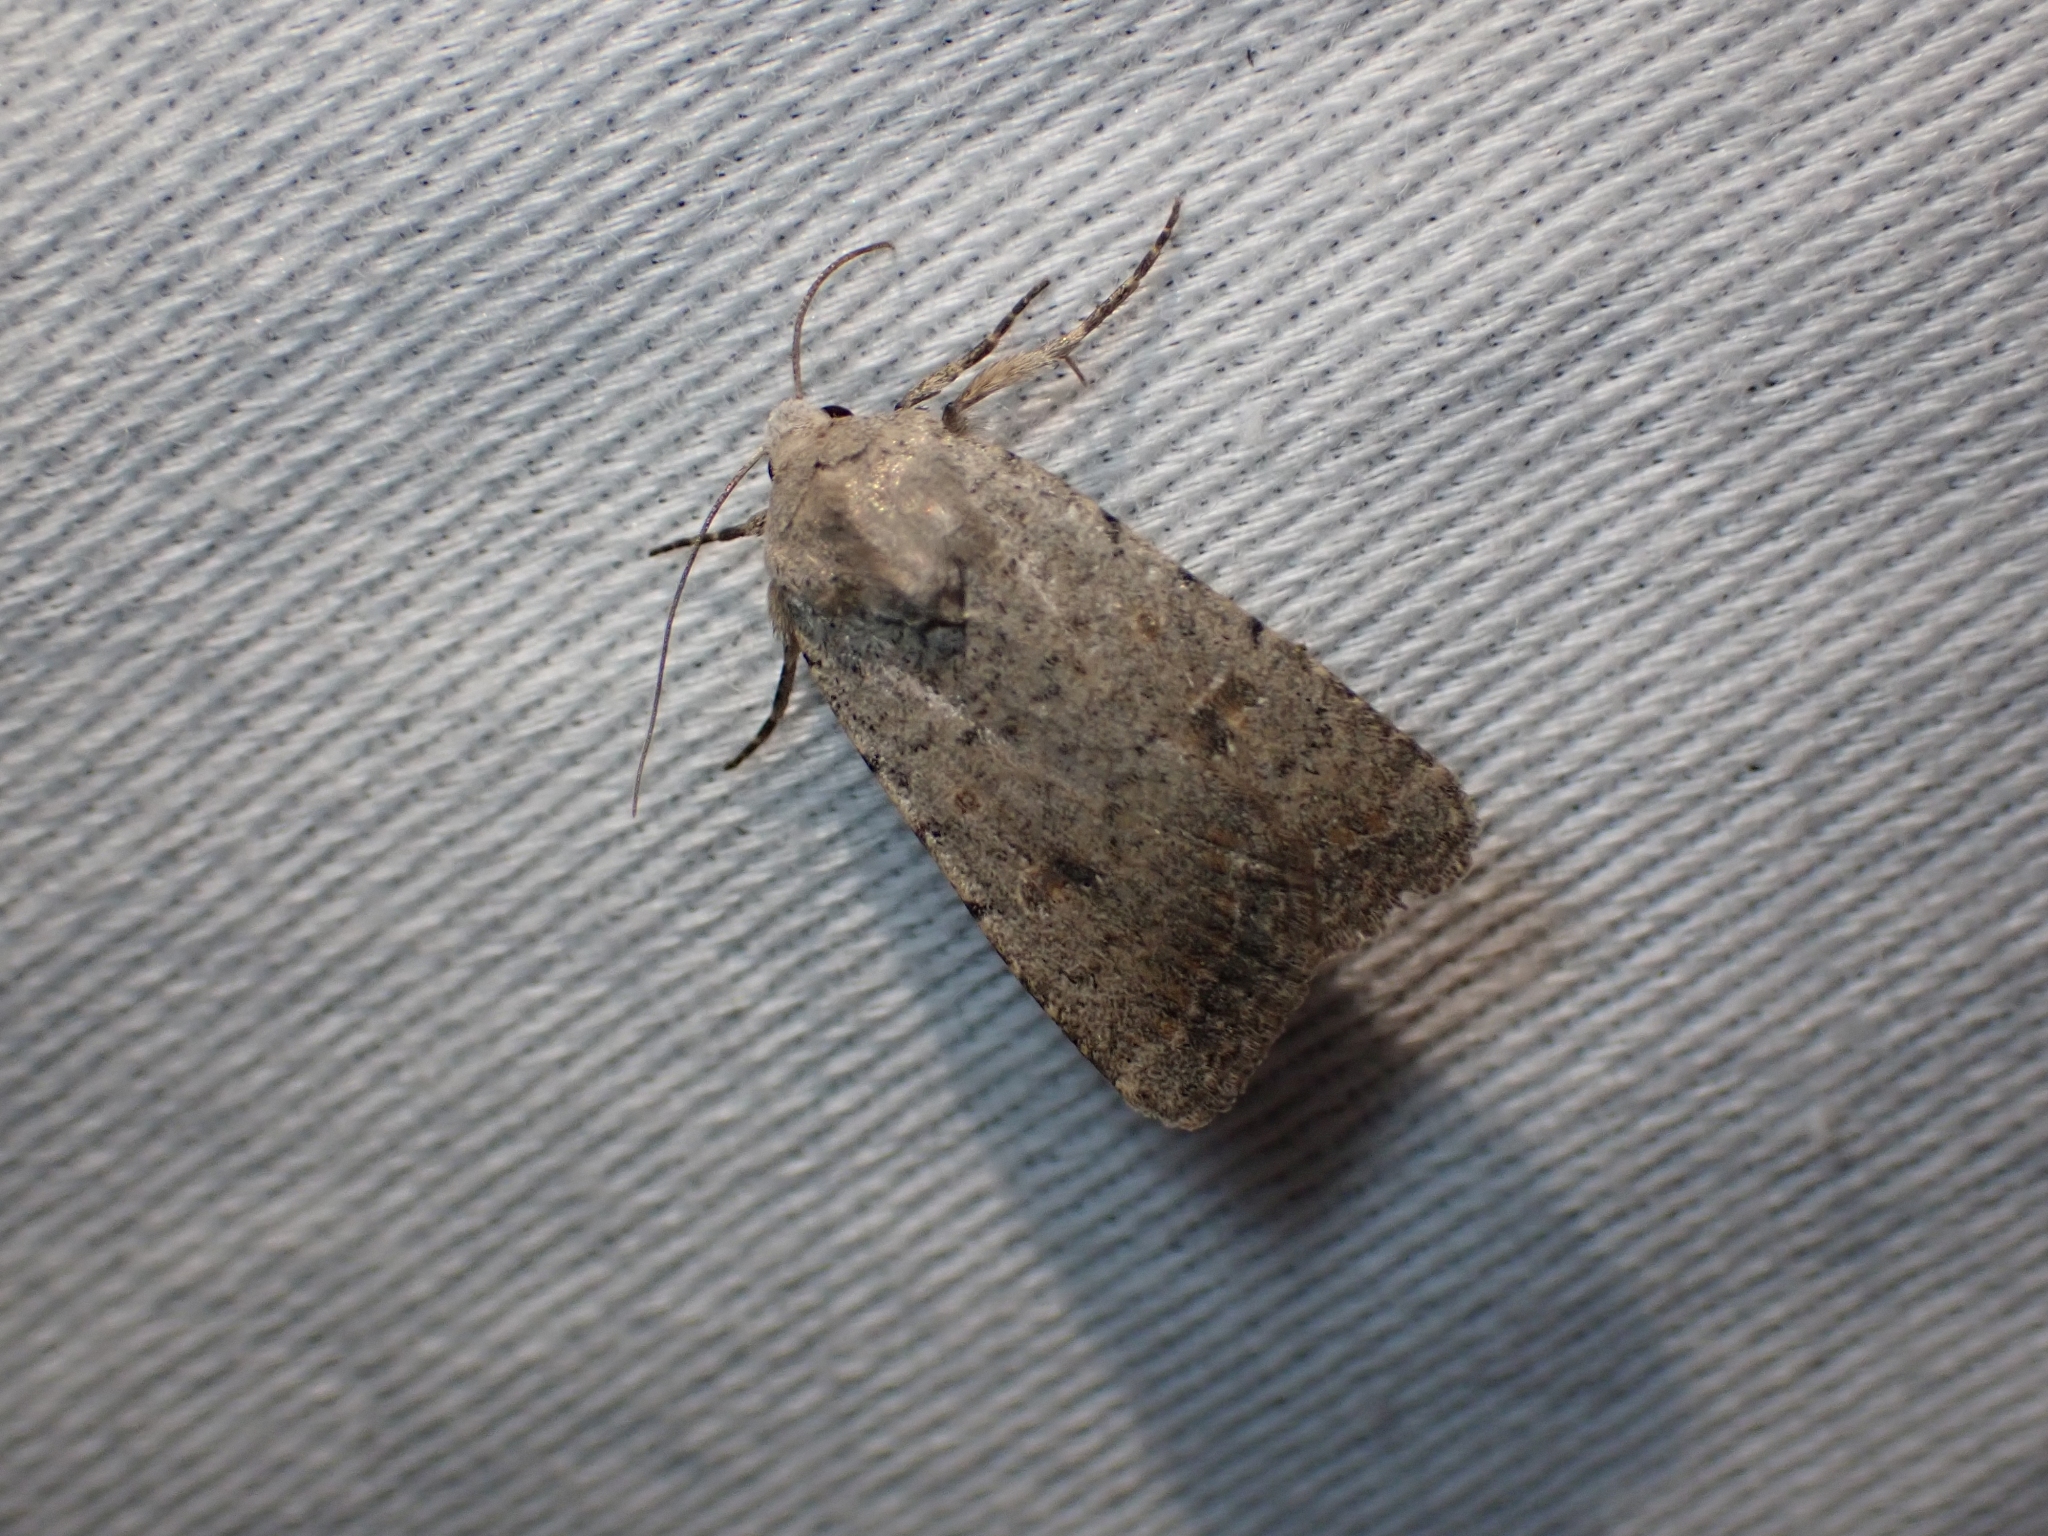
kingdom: Animalia
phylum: Arthropoda
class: Insecta
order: Lepidoptera
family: Noctuidae
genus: Caradrina
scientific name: Caradrina montana
